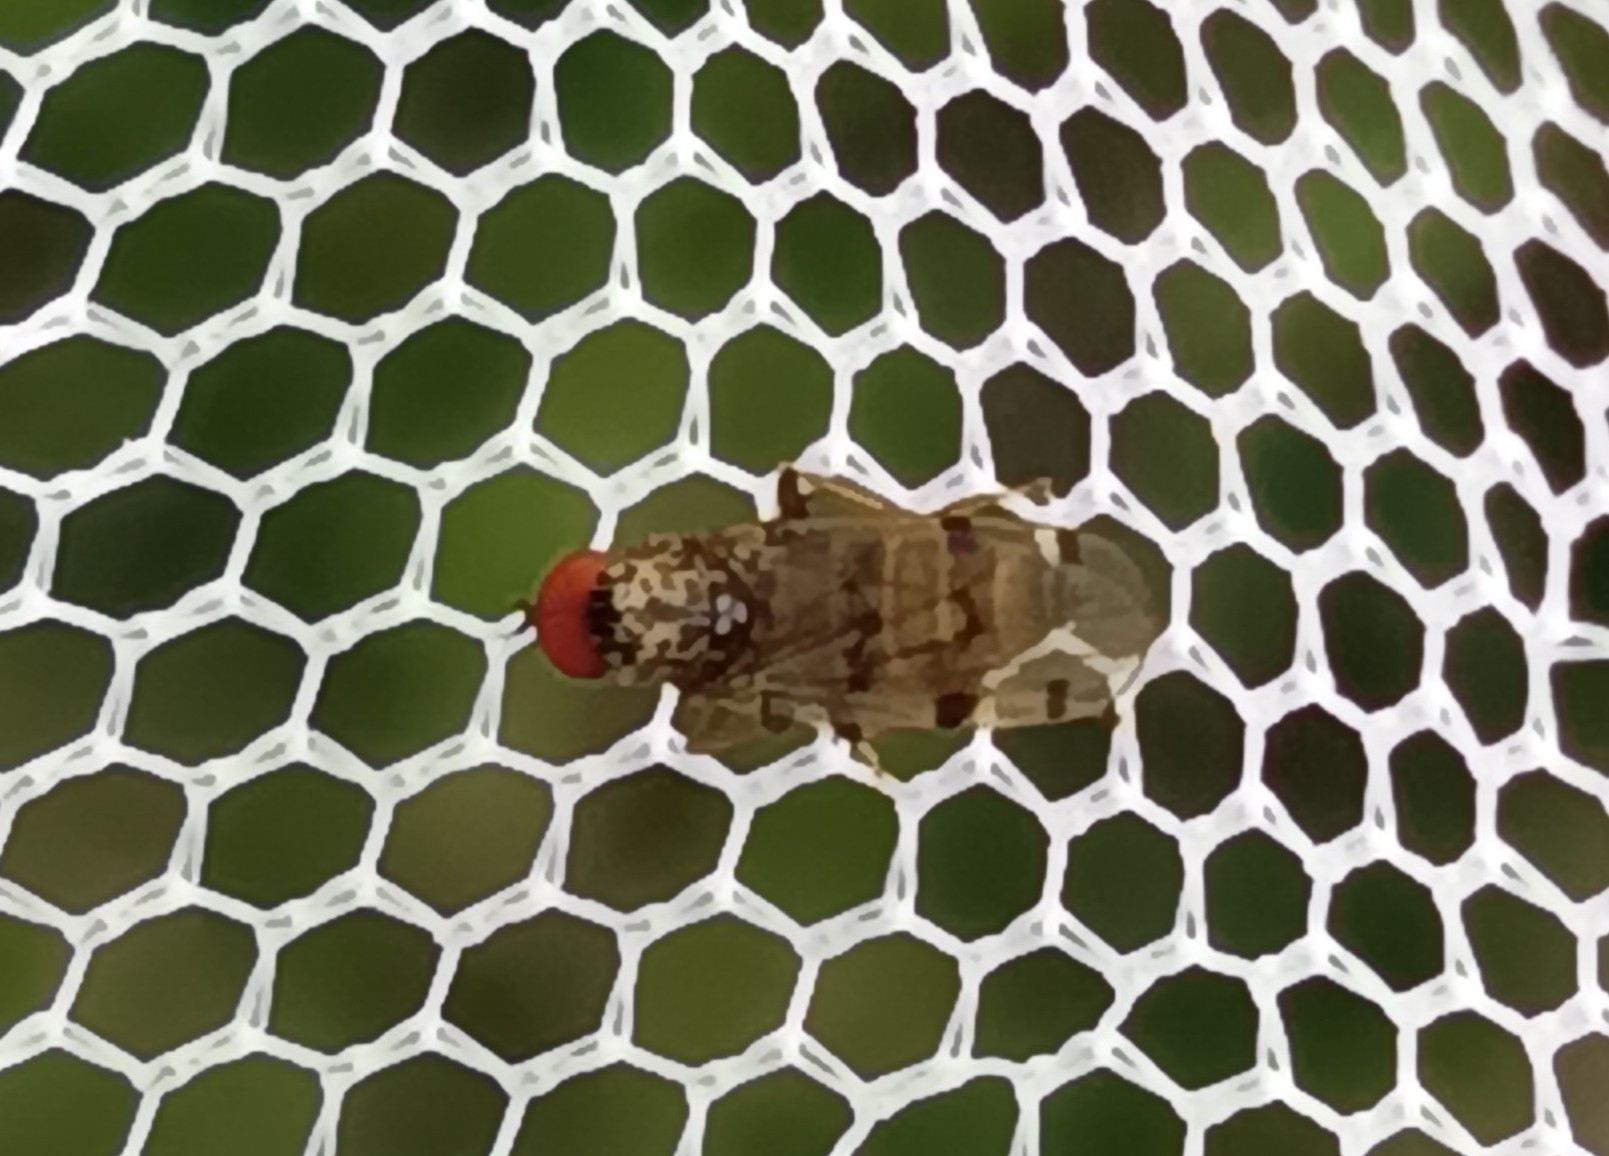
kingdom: Animalia
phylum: Arthropoda
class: Insecta
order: Diptera
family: Hybotidae
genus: Syneches
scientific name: Syneches simplex
